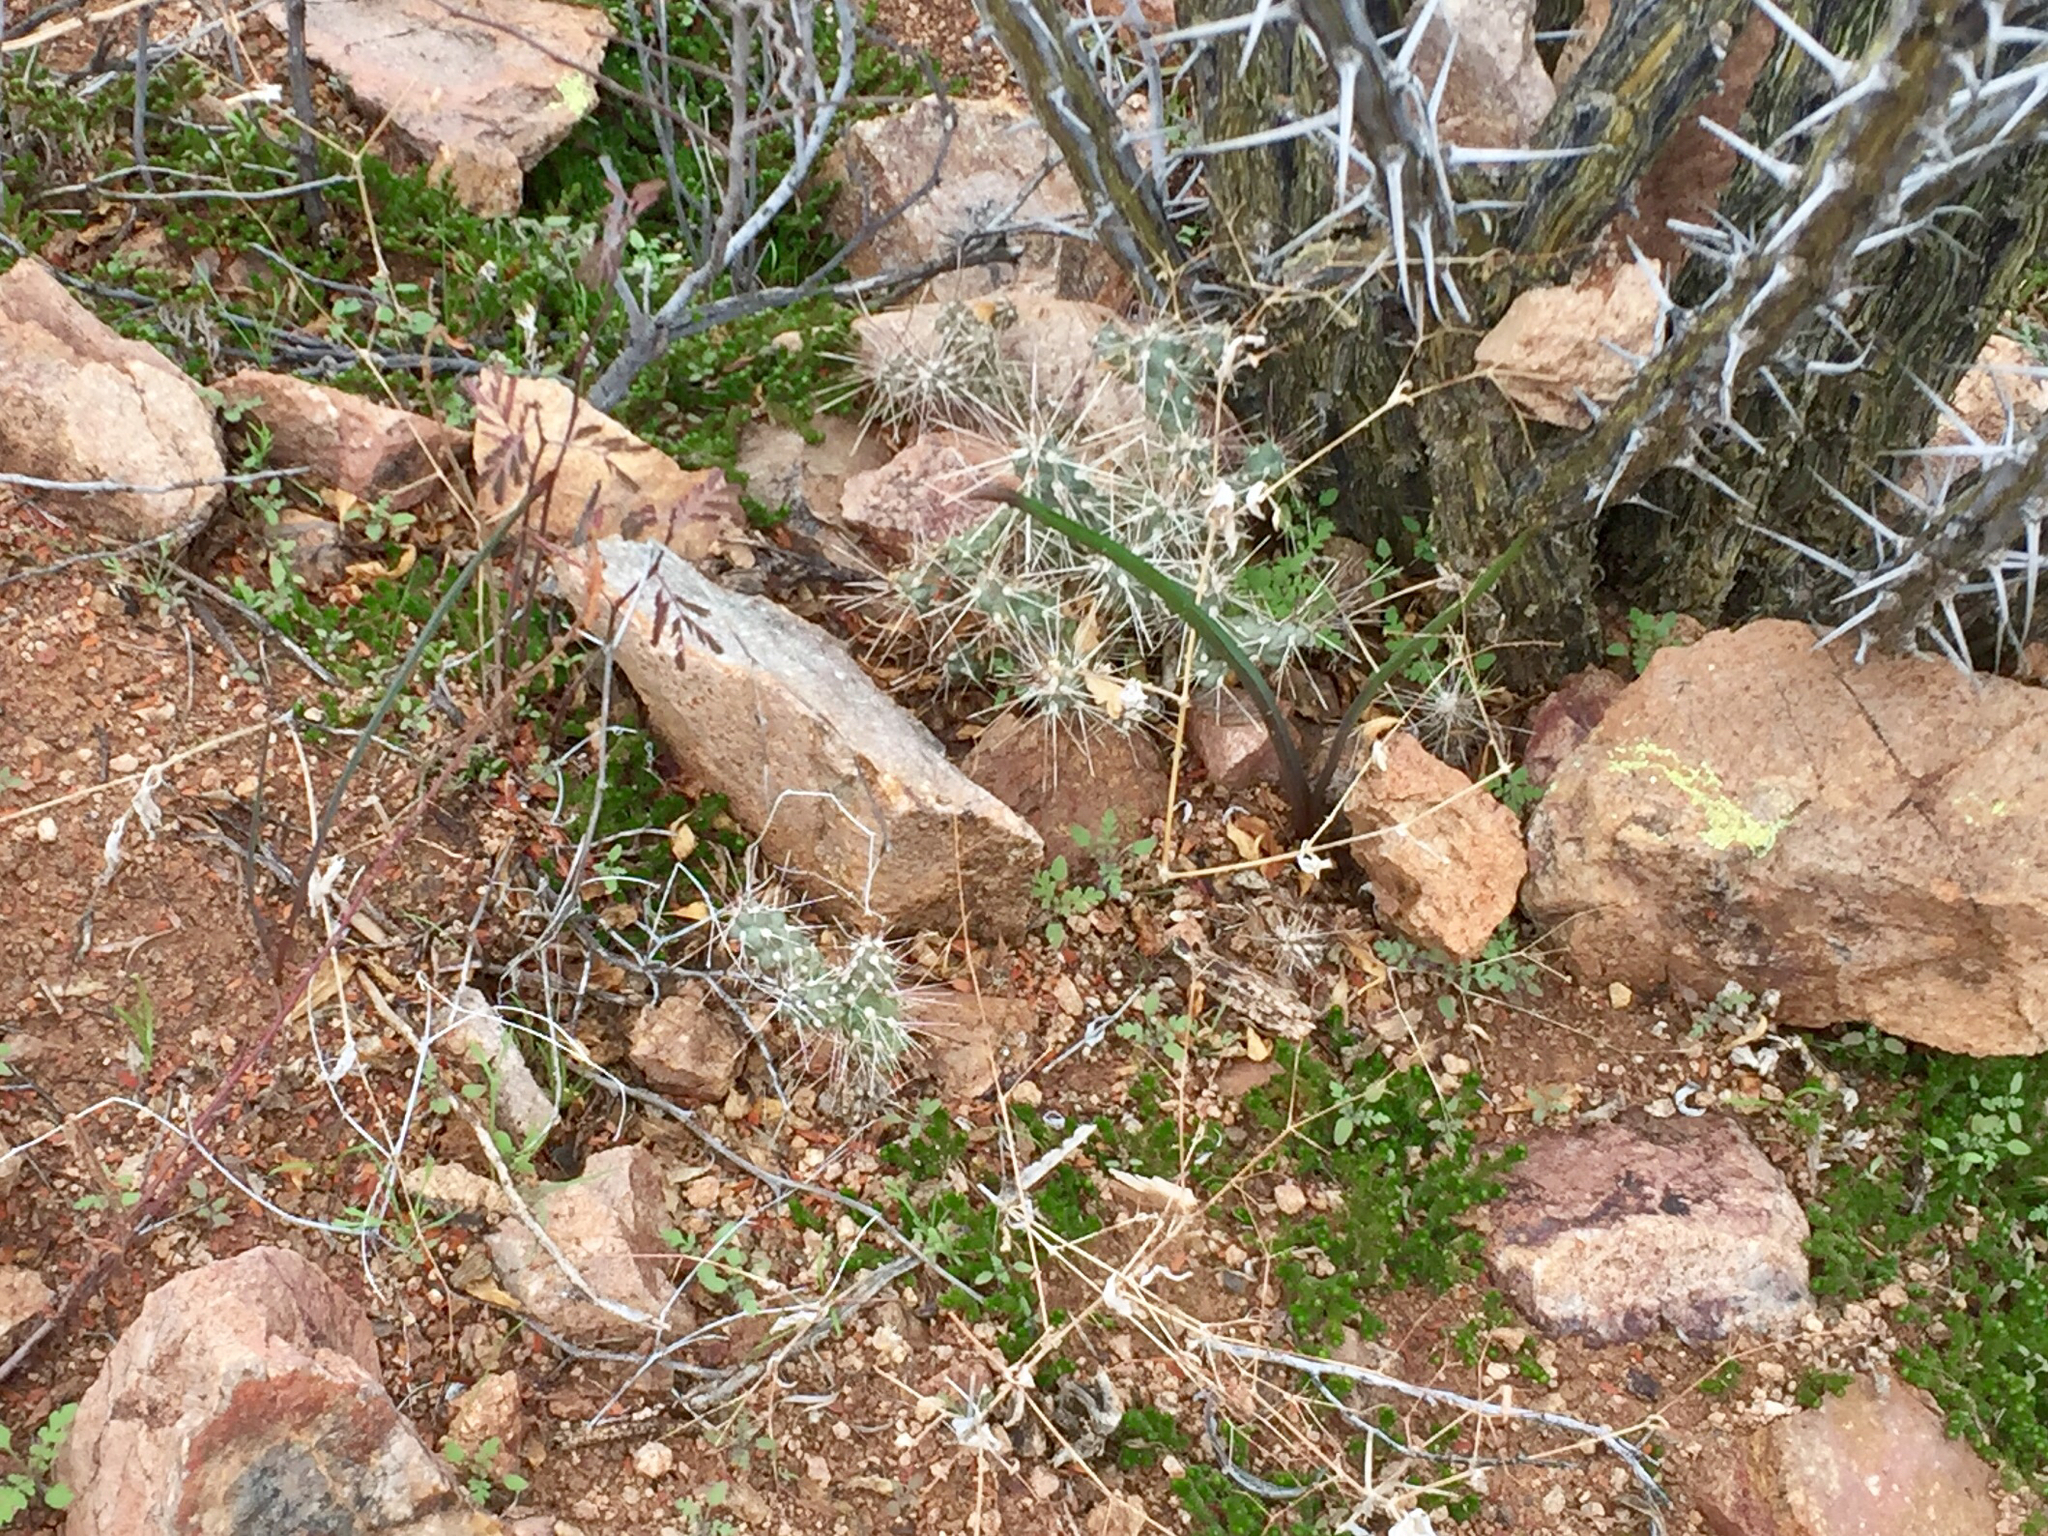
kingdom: Plantae
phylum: Tracheophyta
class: Magnoliopsida
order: Caryophyllales
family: Cactaceae
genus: Cylindropuntia
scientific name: Cylindropuntia fulgida
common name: Jumping cholla
